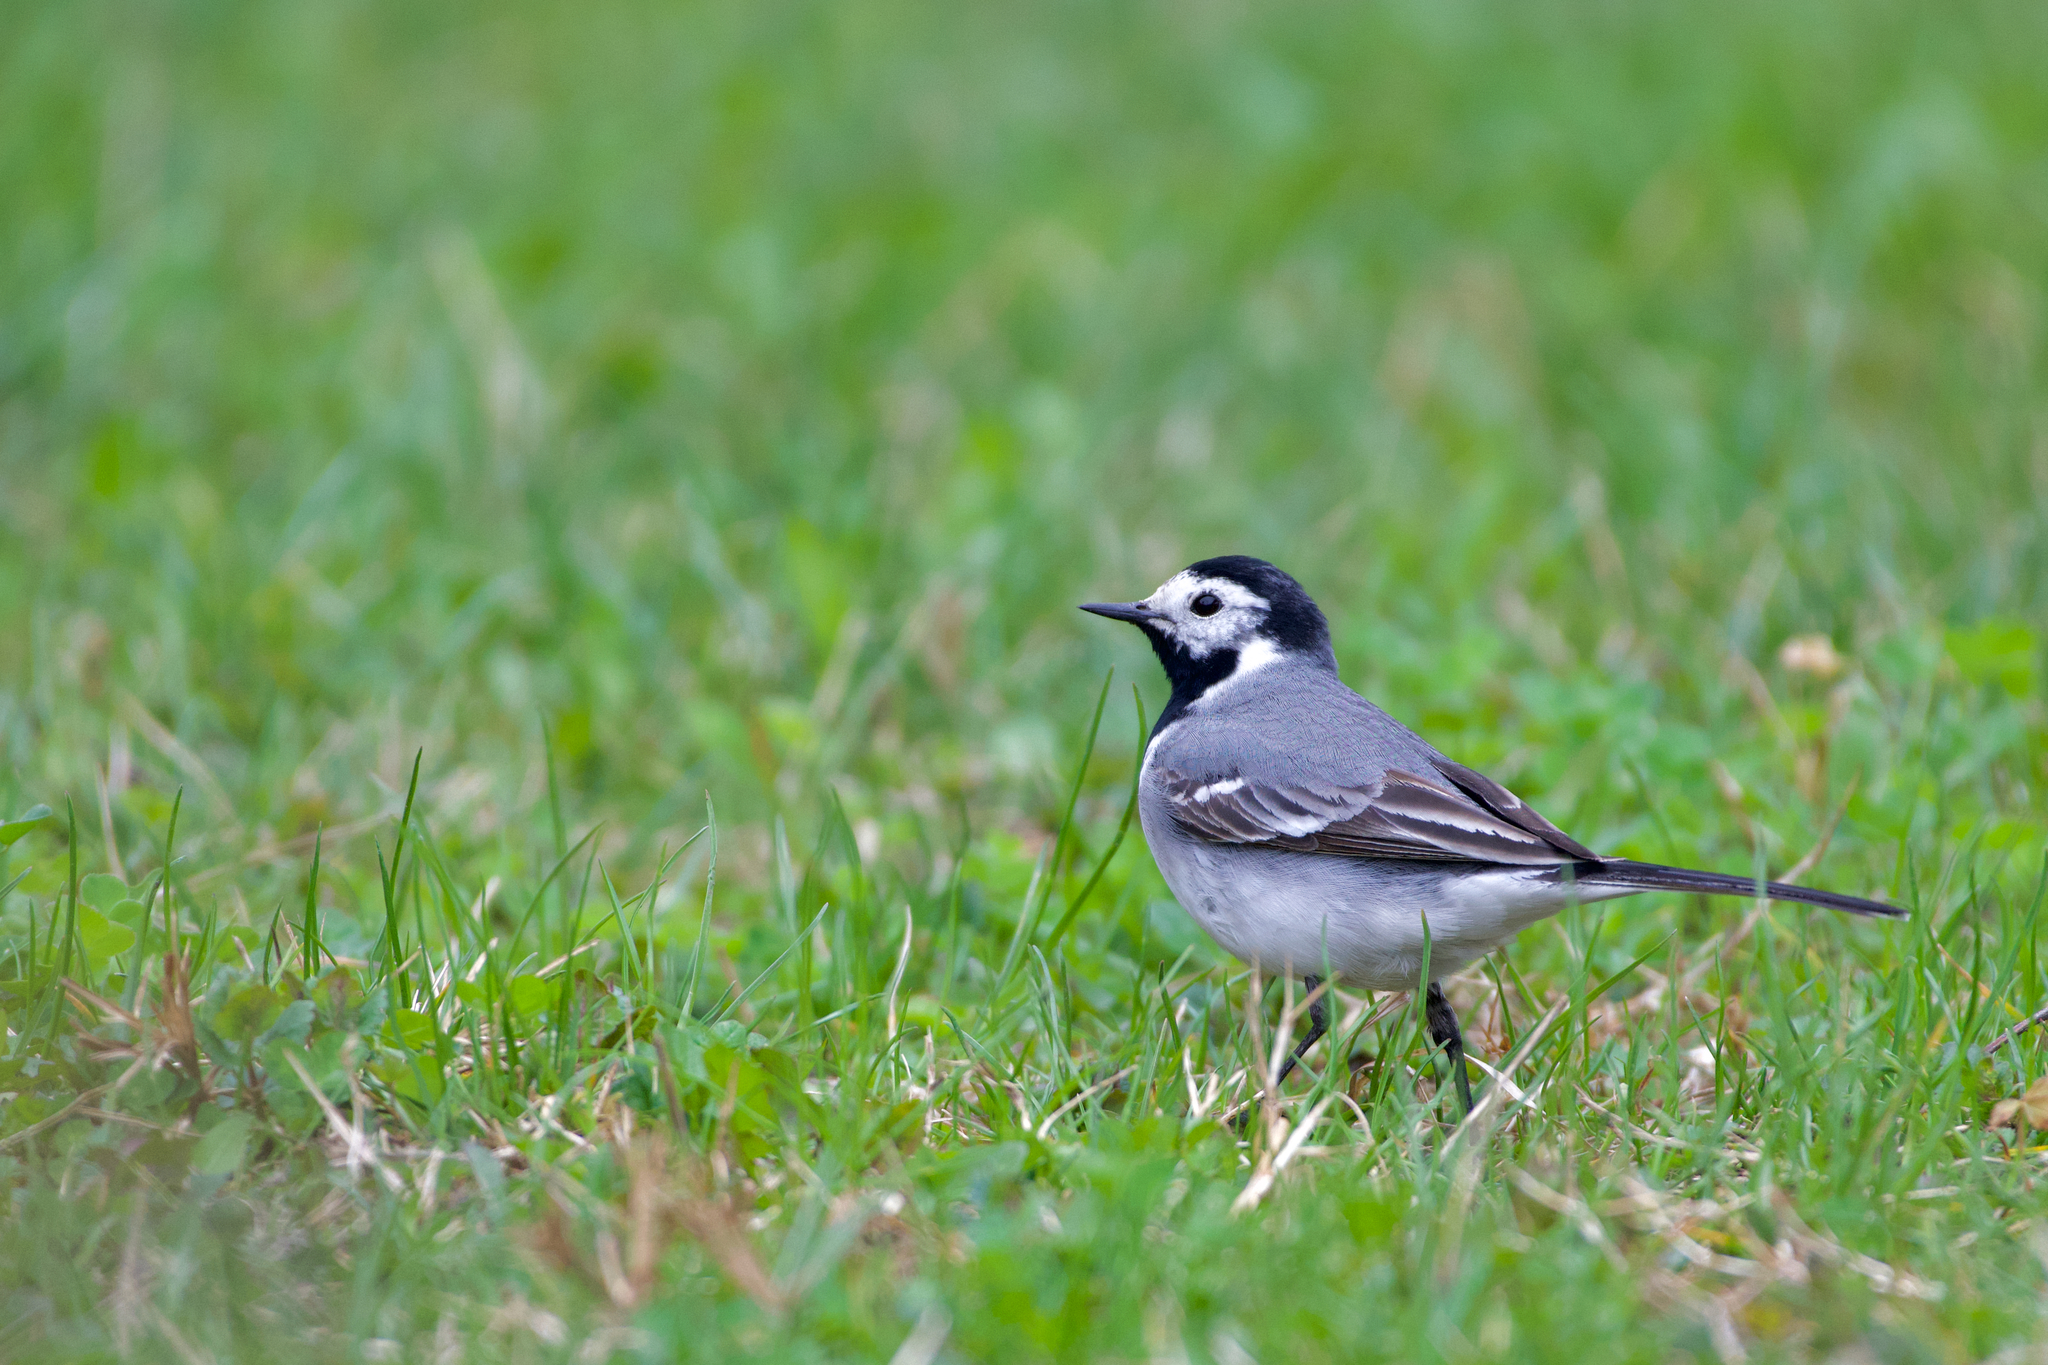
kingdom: Animalia
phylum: Chordata
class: Aves
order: Passeriformes
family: Motacillidae
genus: Motacilla
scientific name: Motacilla alba
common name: White wagtail
